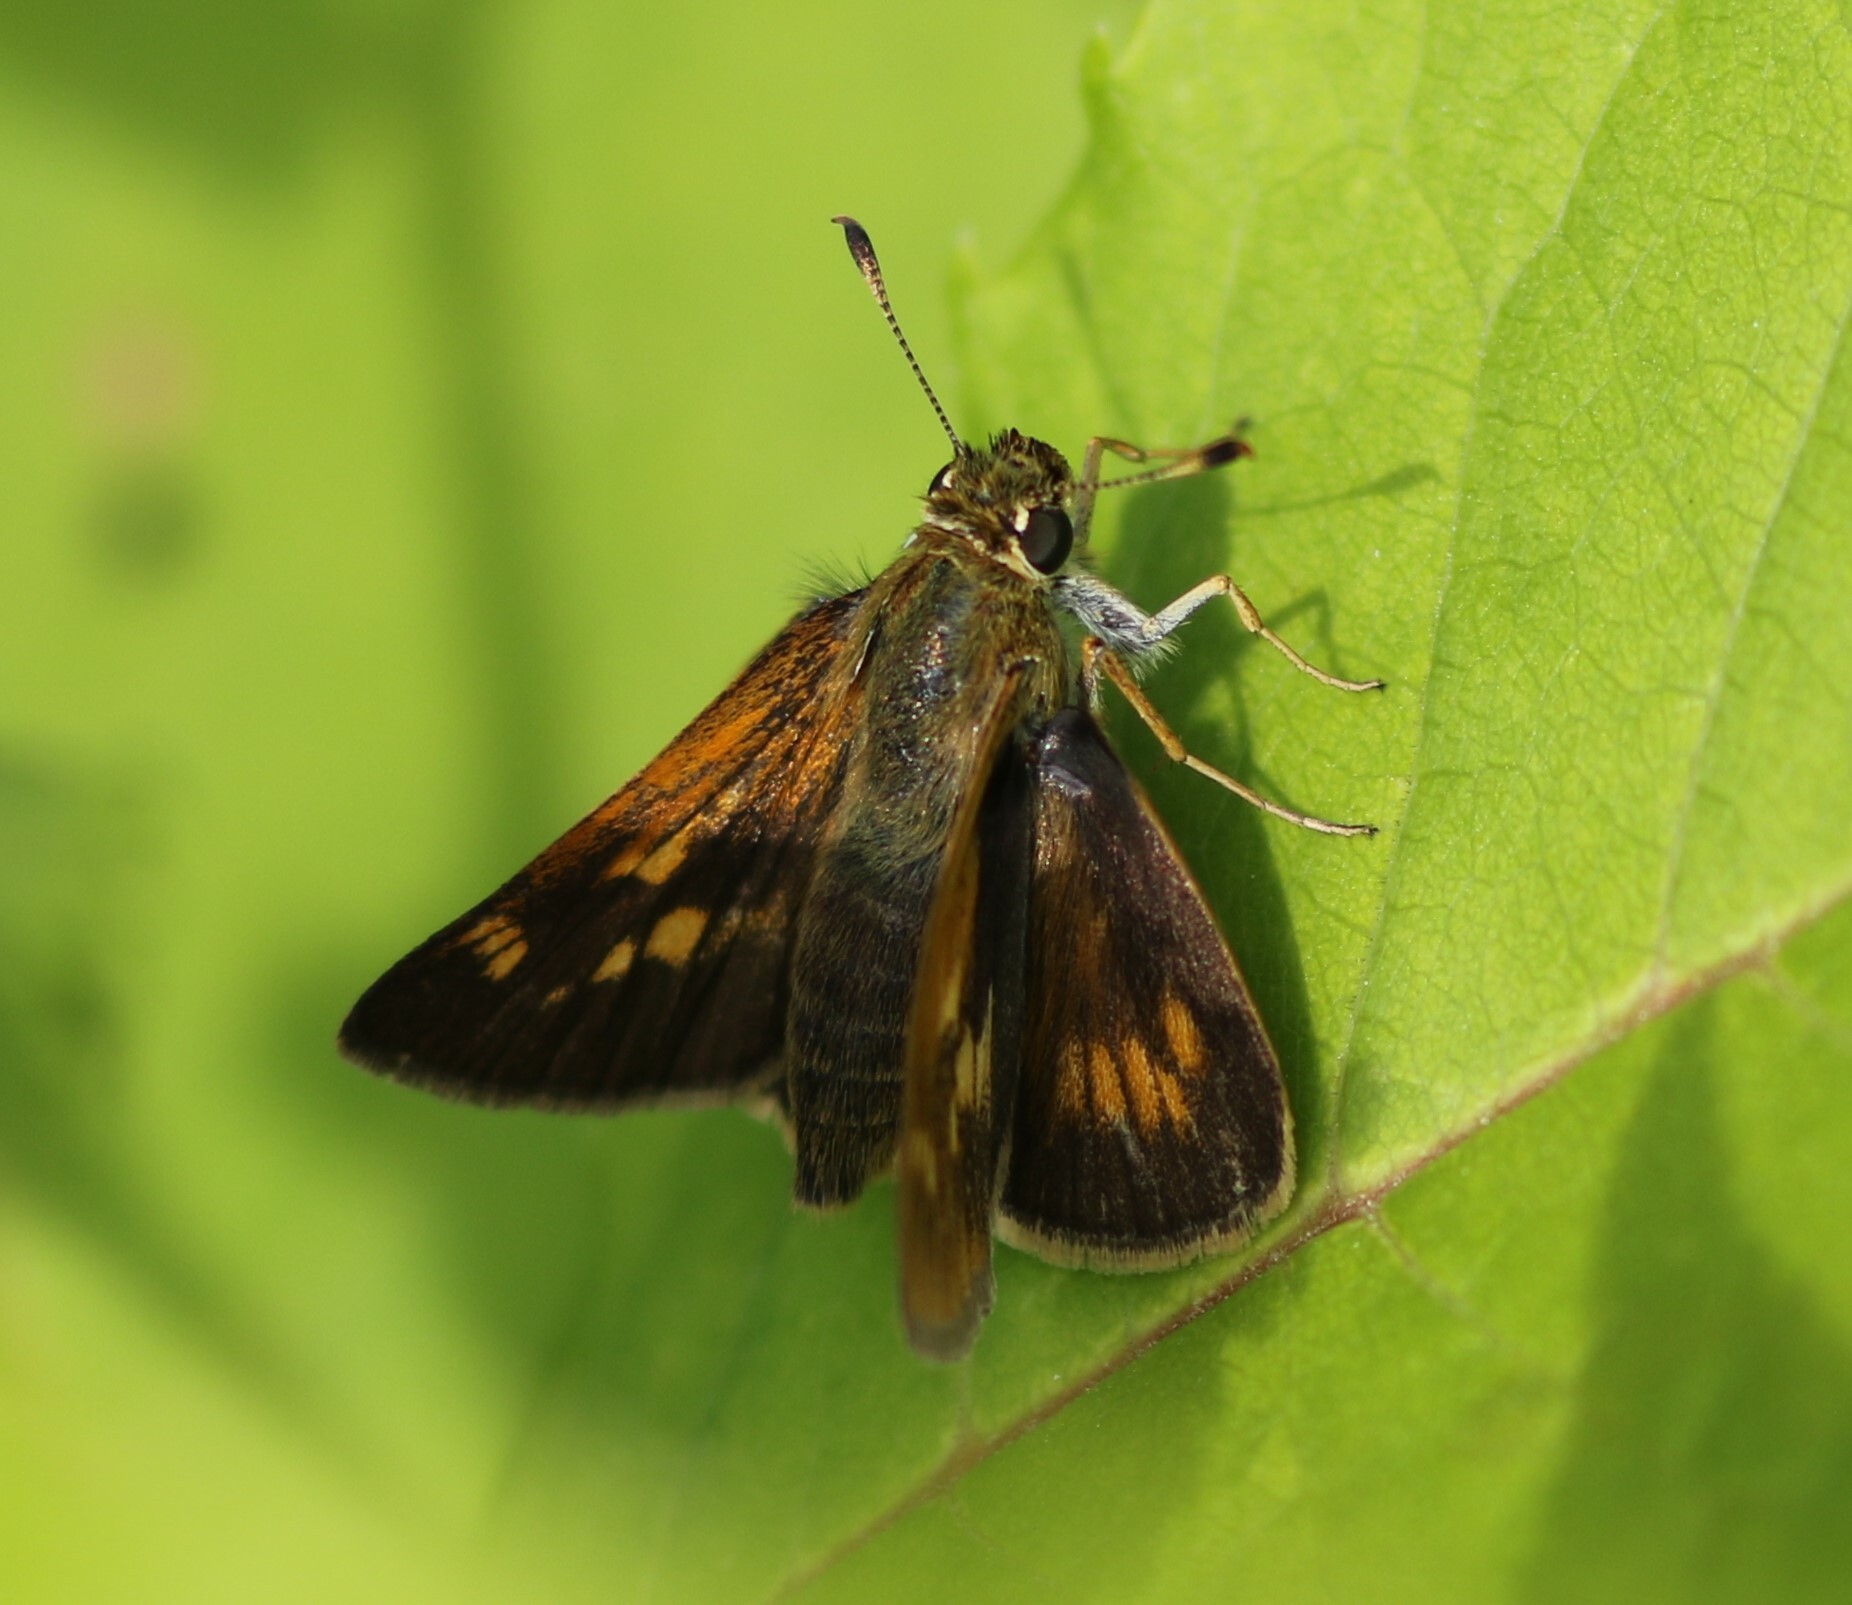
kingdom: Animalia
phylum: Arthropoda
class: Insecta
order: Lepidoptera
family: Hesperiidae
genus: Polites
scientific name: Polites mystic
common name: Long dash
